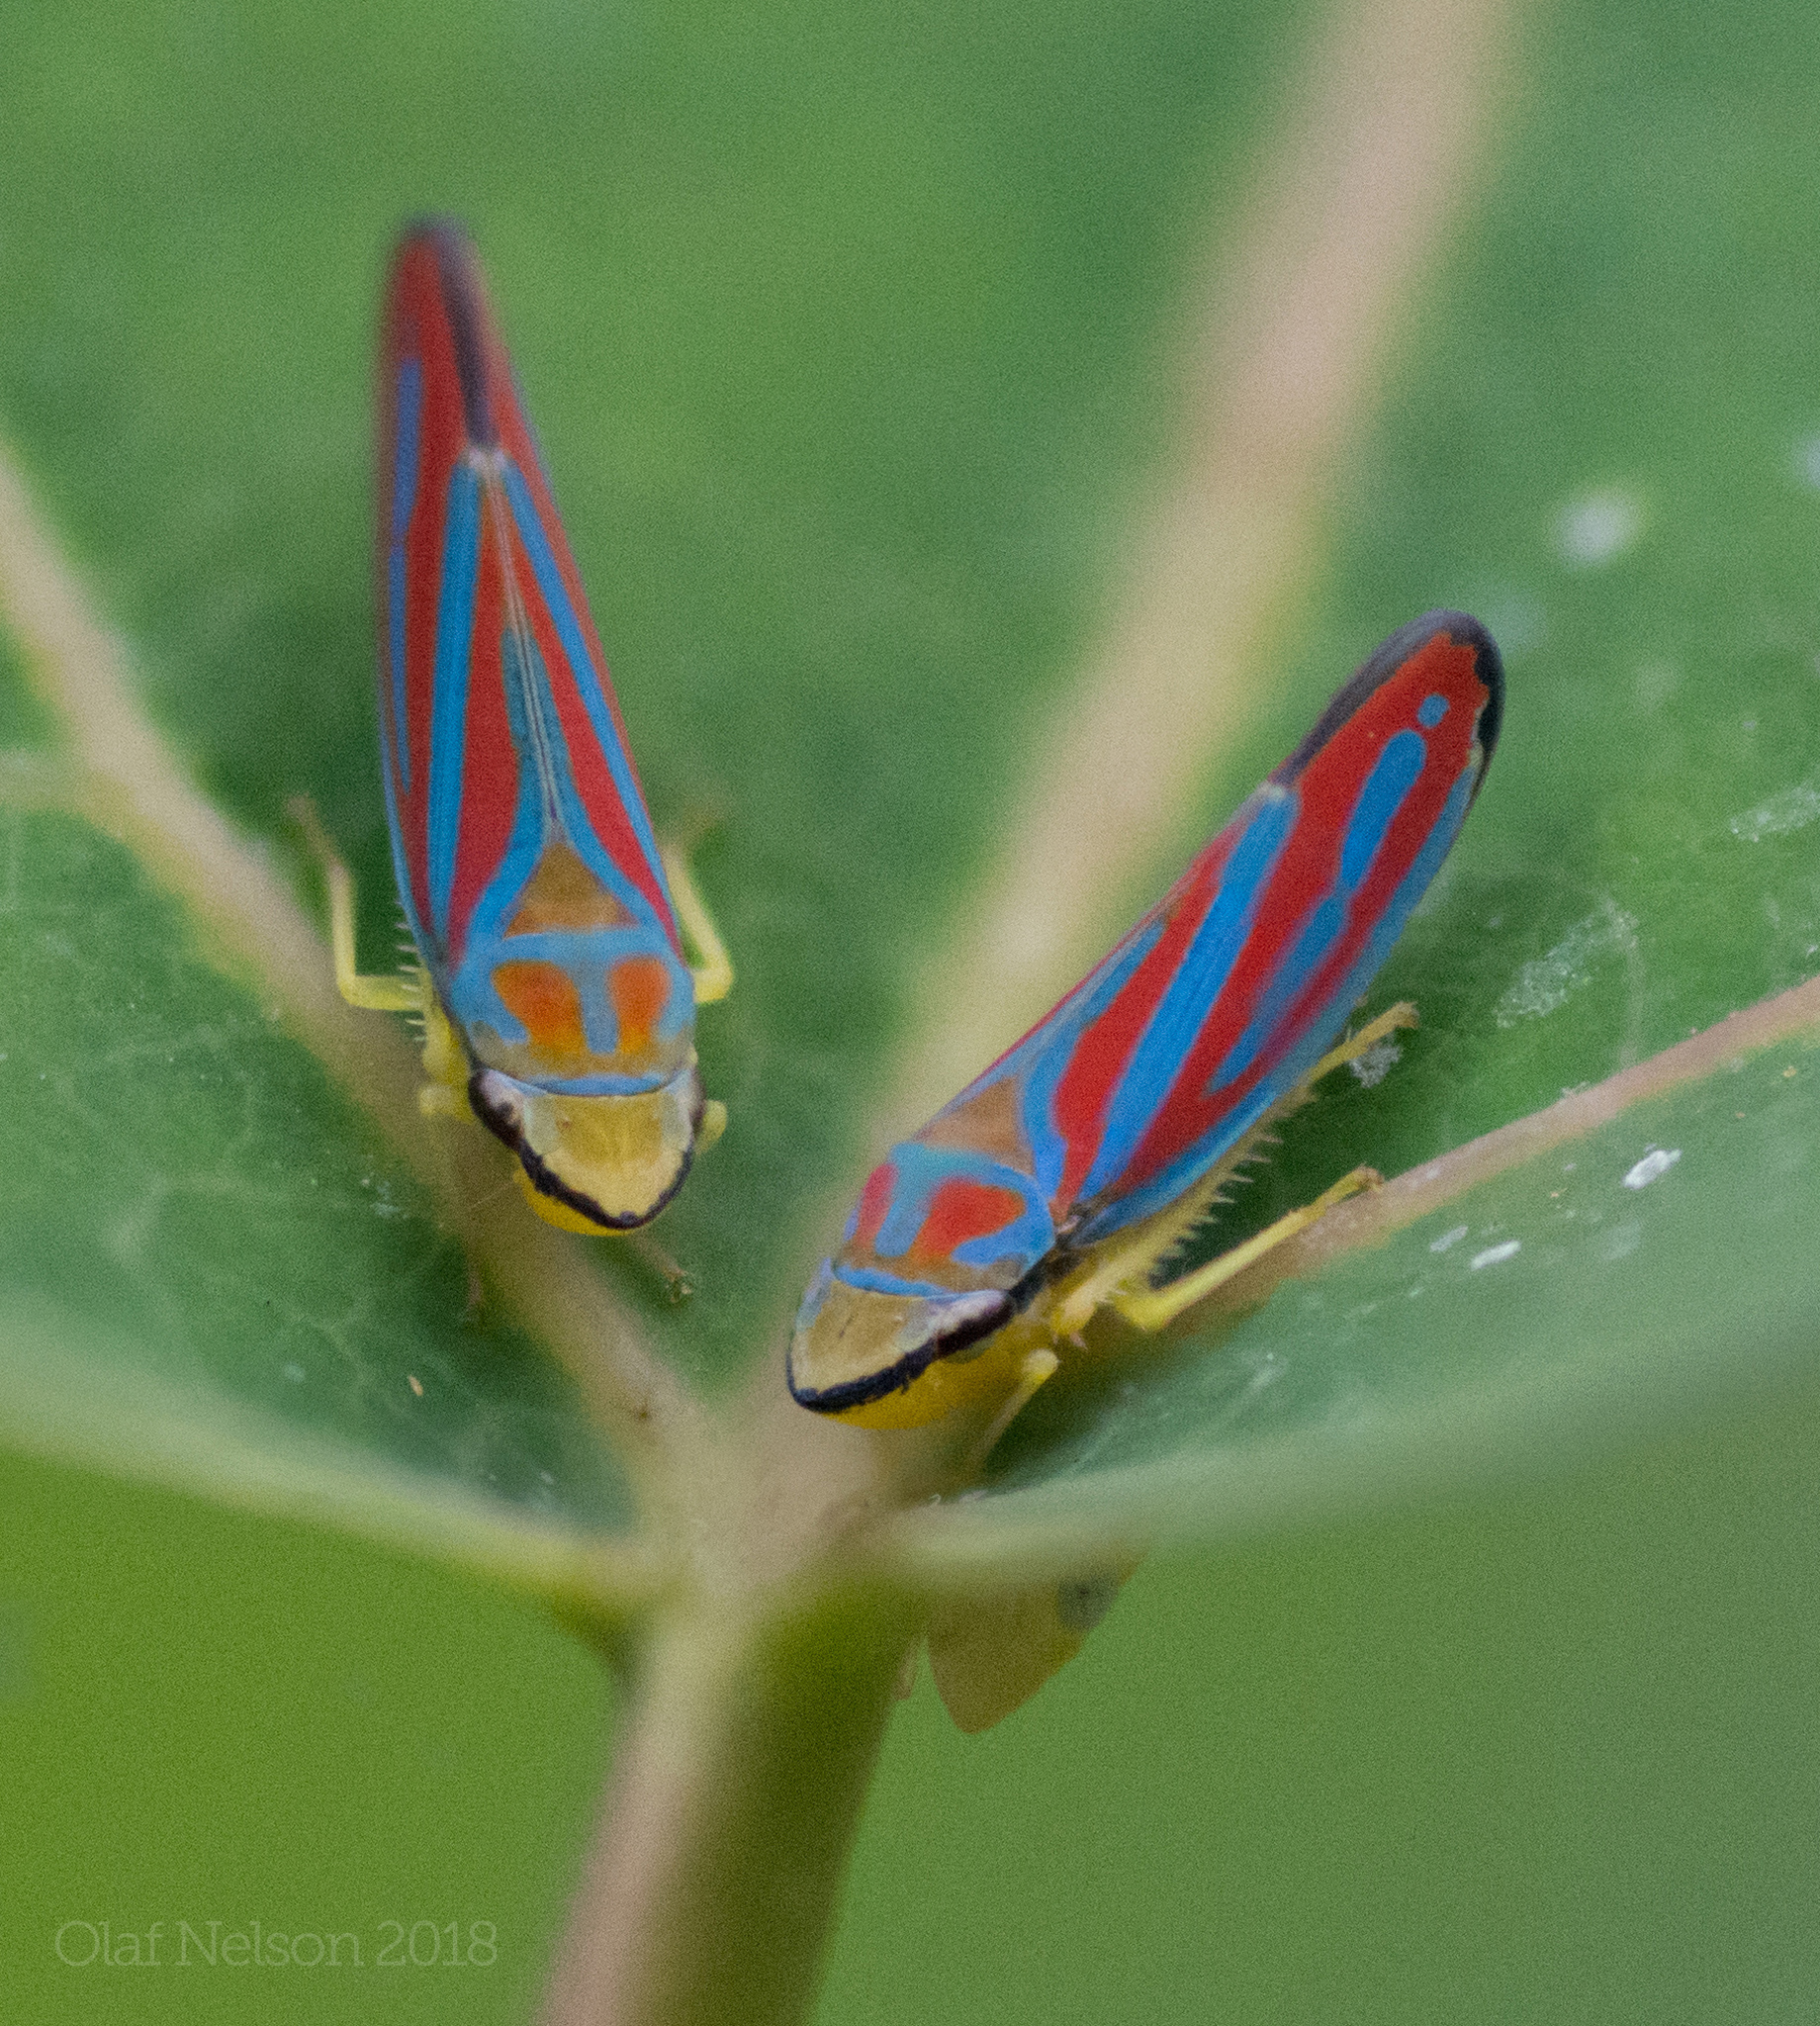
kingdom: Animalia
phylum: Arthropoda
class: Insecta
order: Hemiptera
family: Cicadellidae
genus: Graphocephala
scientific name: Graphocephala coccinea
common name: Candy-striped leafhopper
